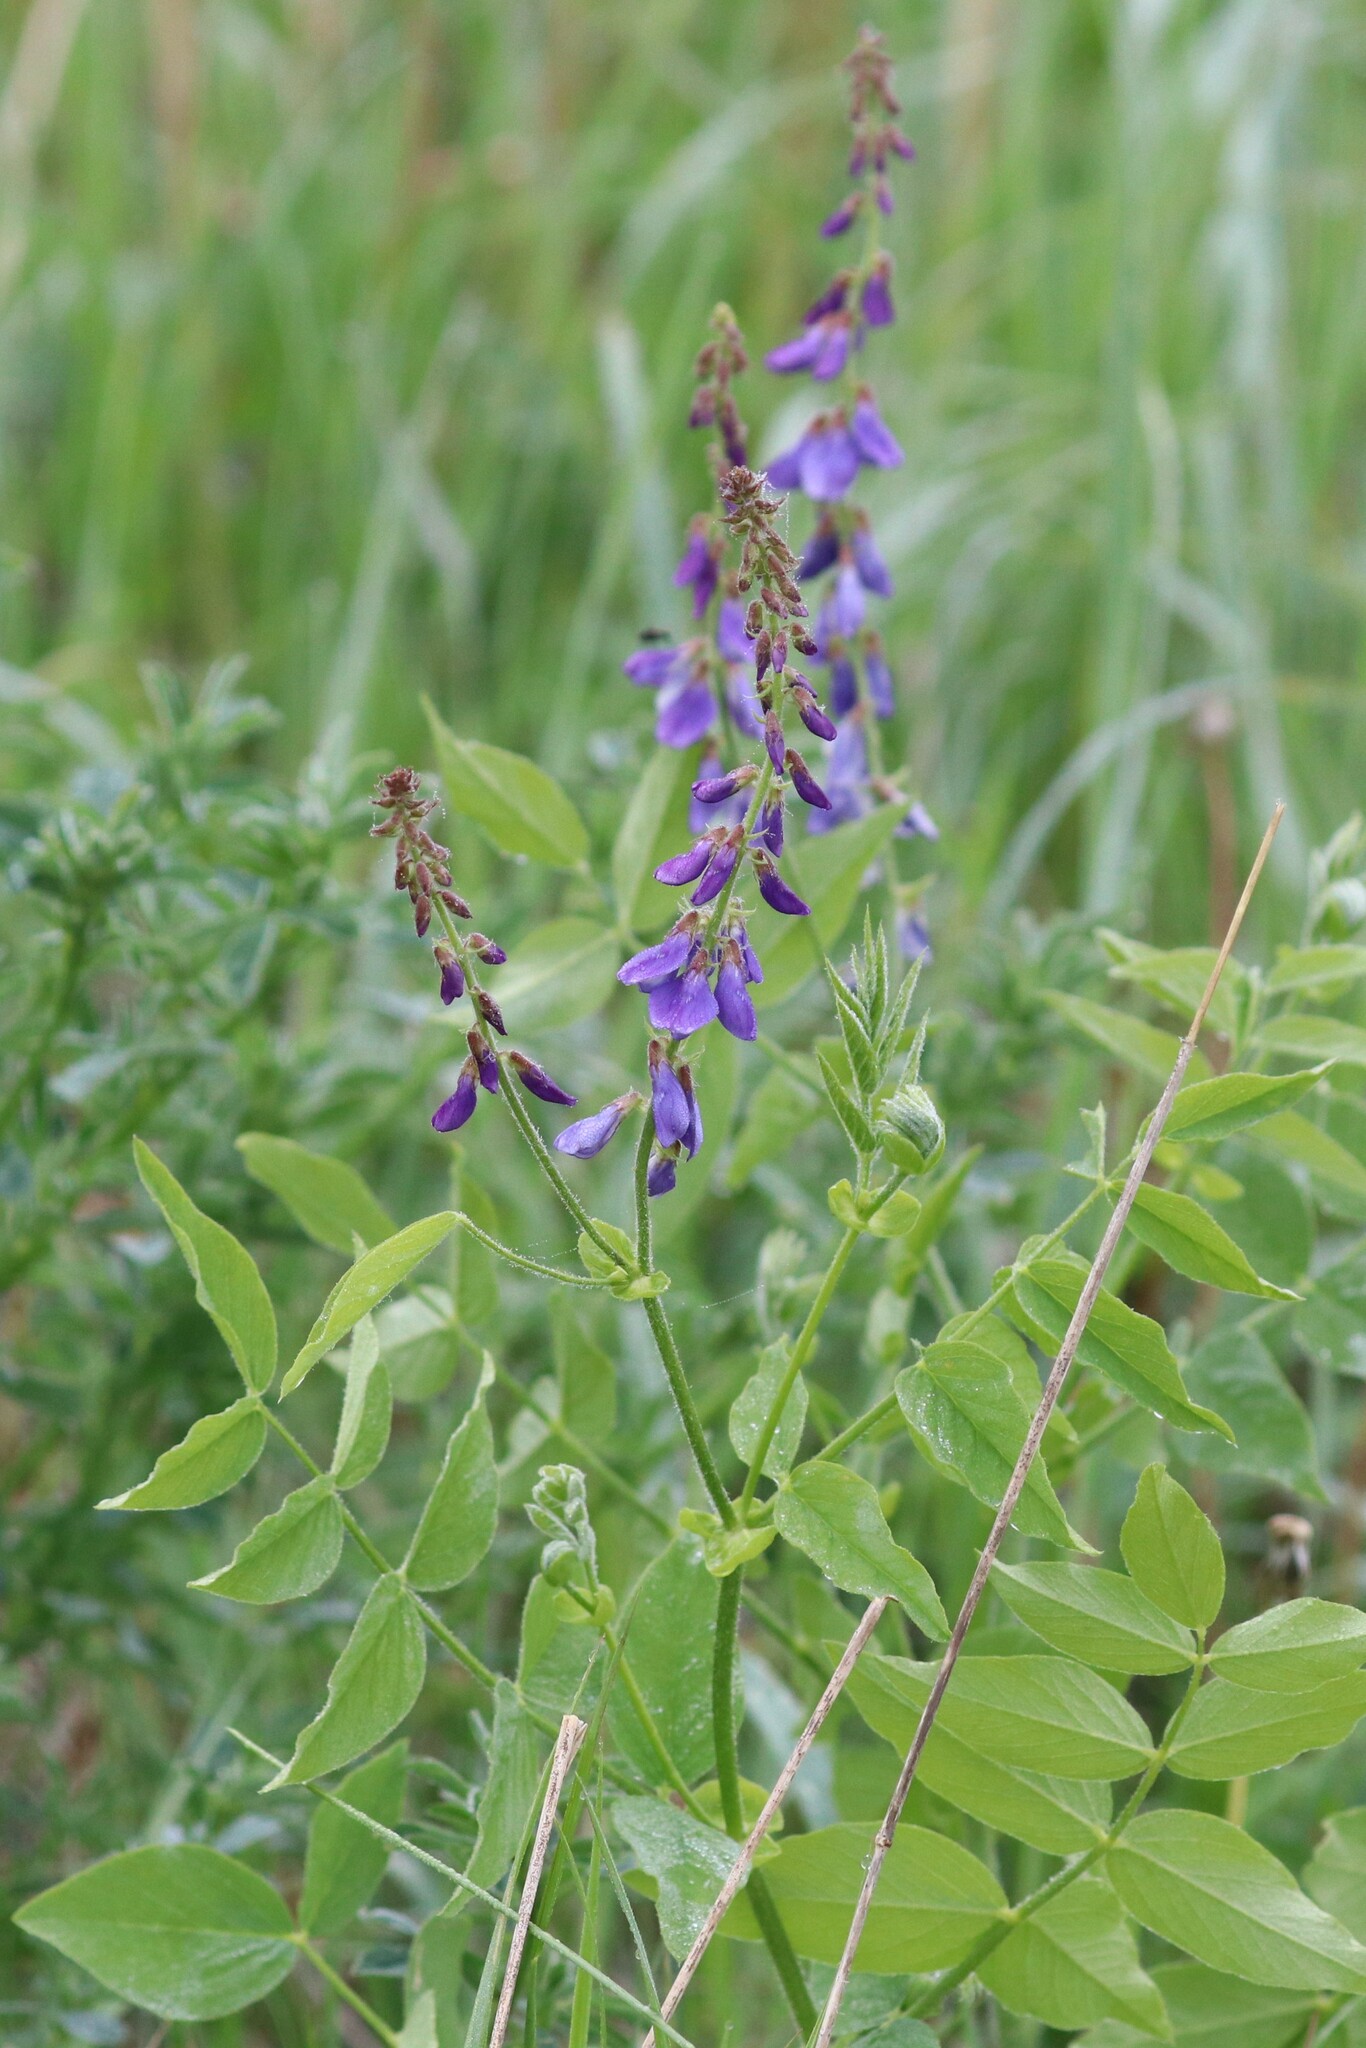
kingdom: Plantae
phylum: Tracheophyta
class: Magnoliopsida
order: Fabales
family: Fabaceae
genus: Galega
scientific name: Galega orientalis
